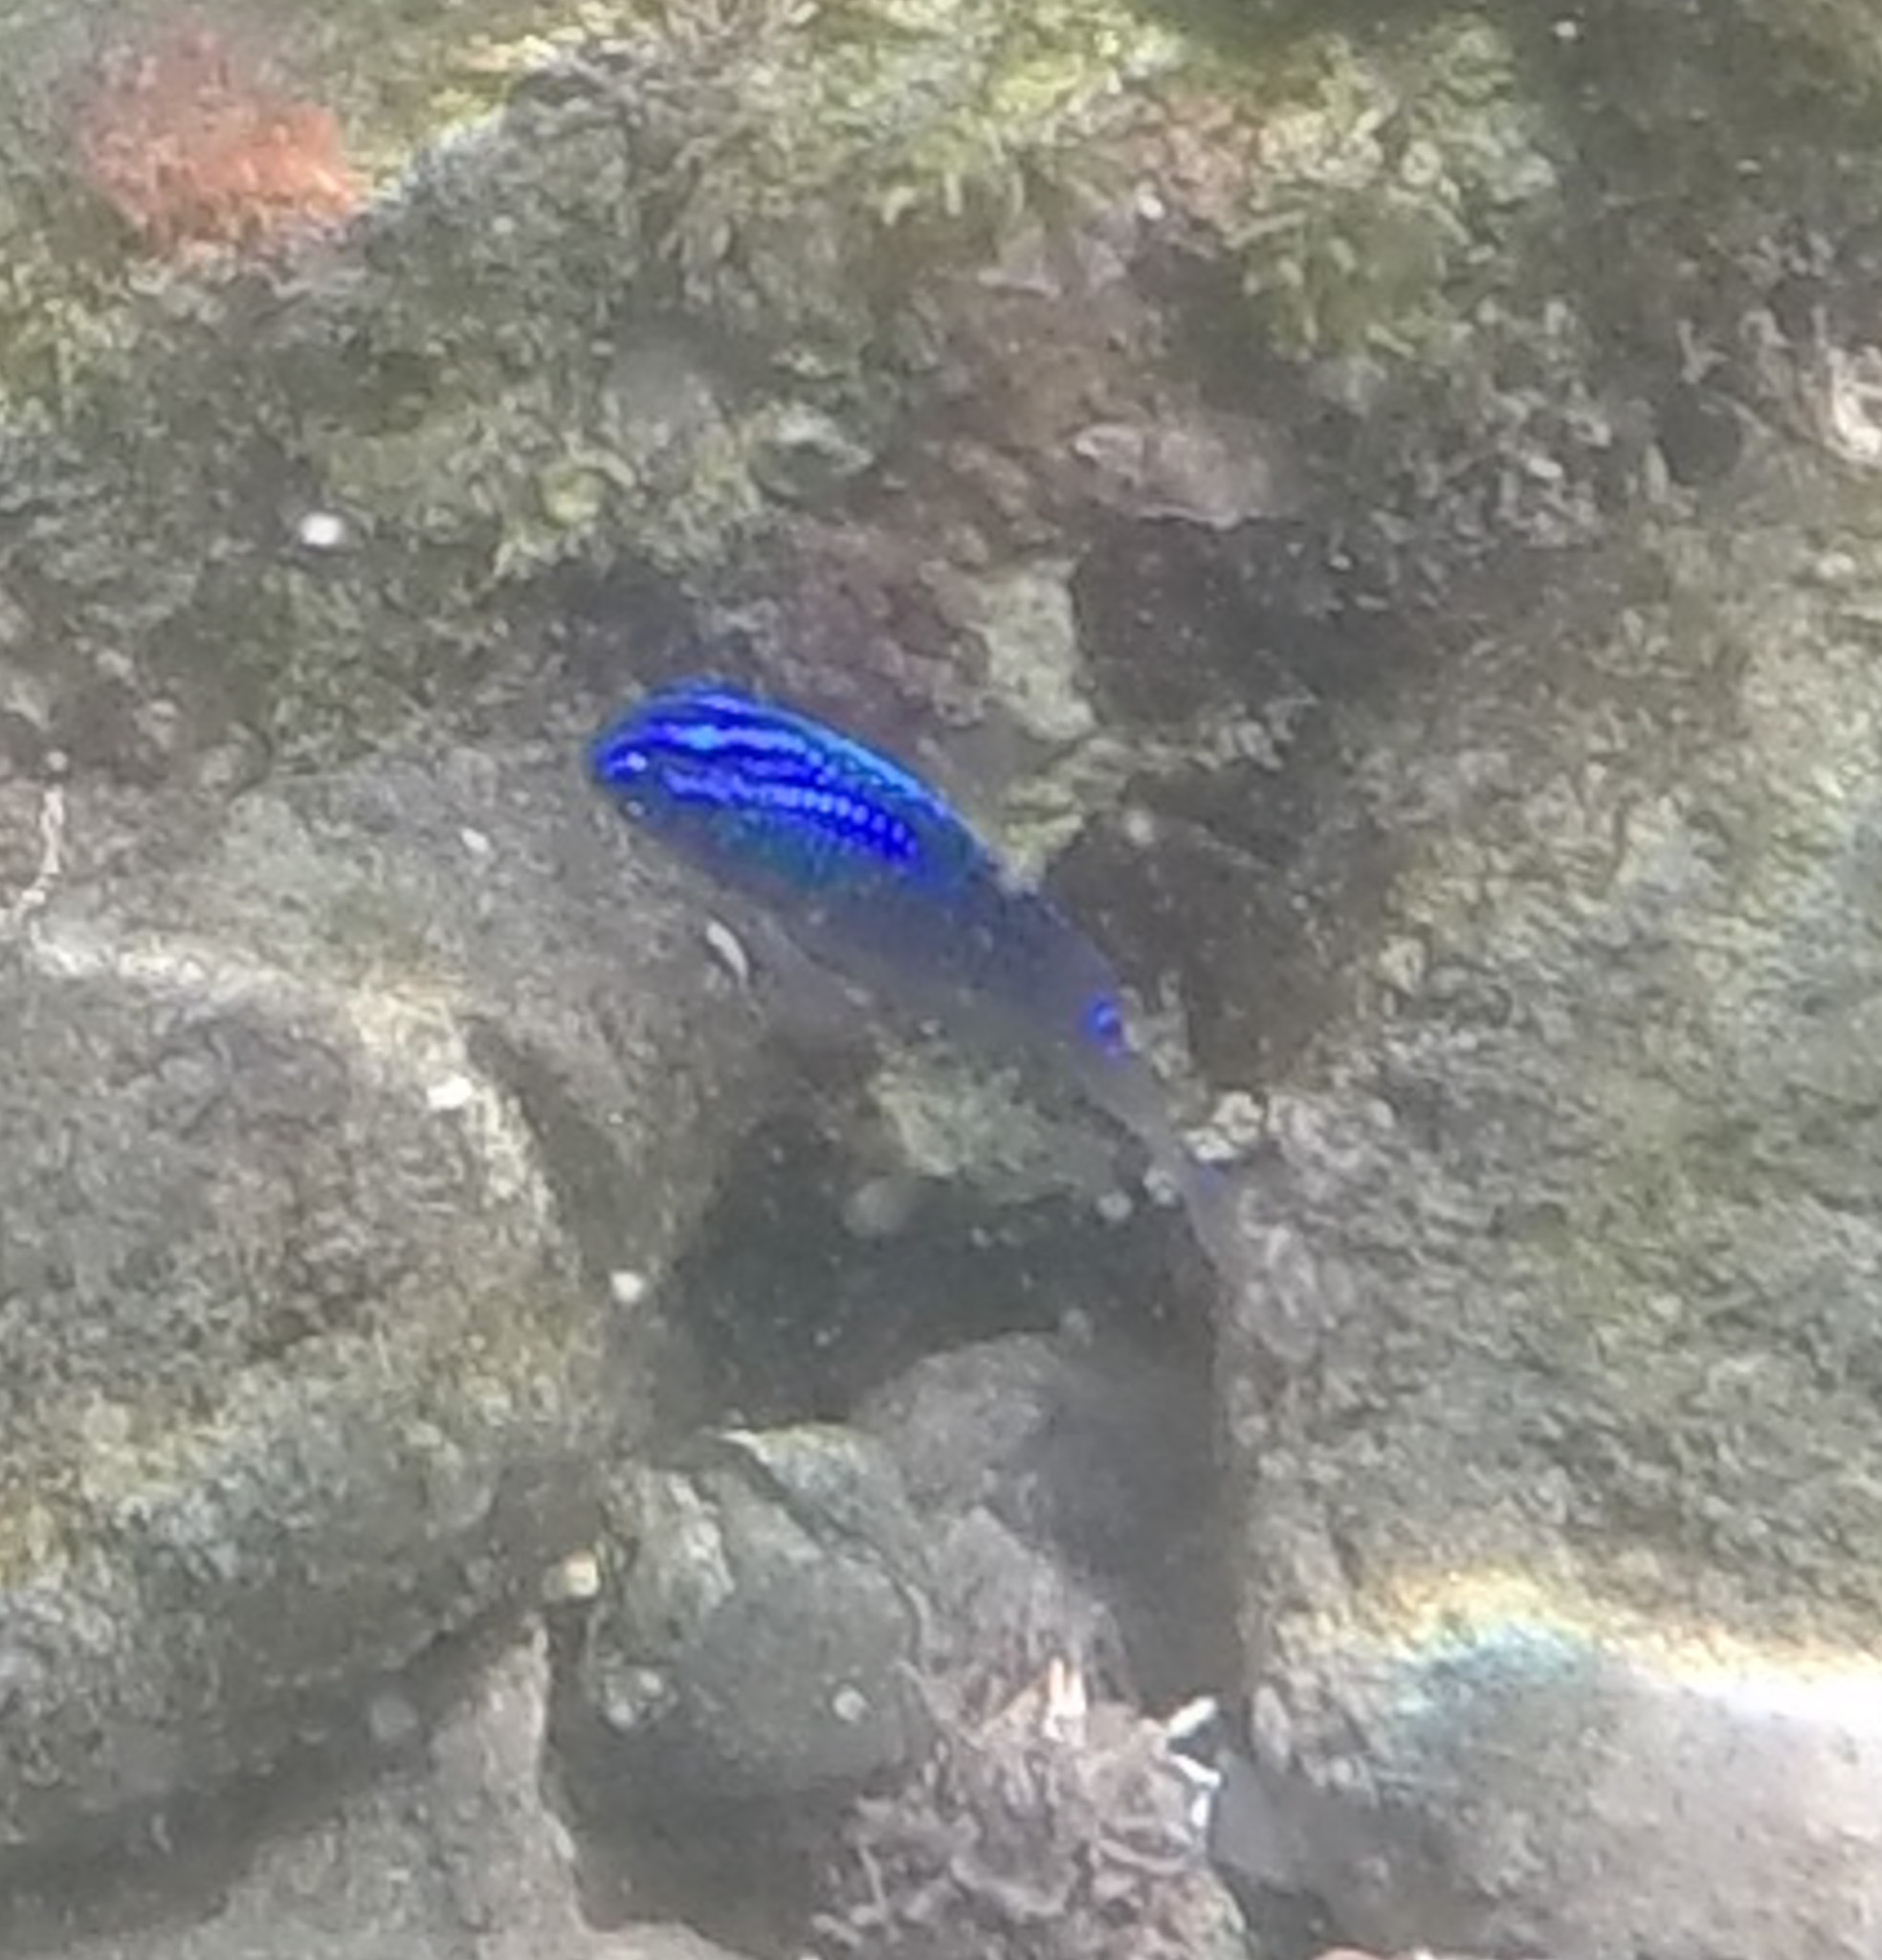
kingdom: Animalia
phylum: Chordata
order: Perciformes
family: Pomacentridae
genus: Stegastes
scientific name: Stegastes acapulcoensis
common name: Acapulco damselfish
